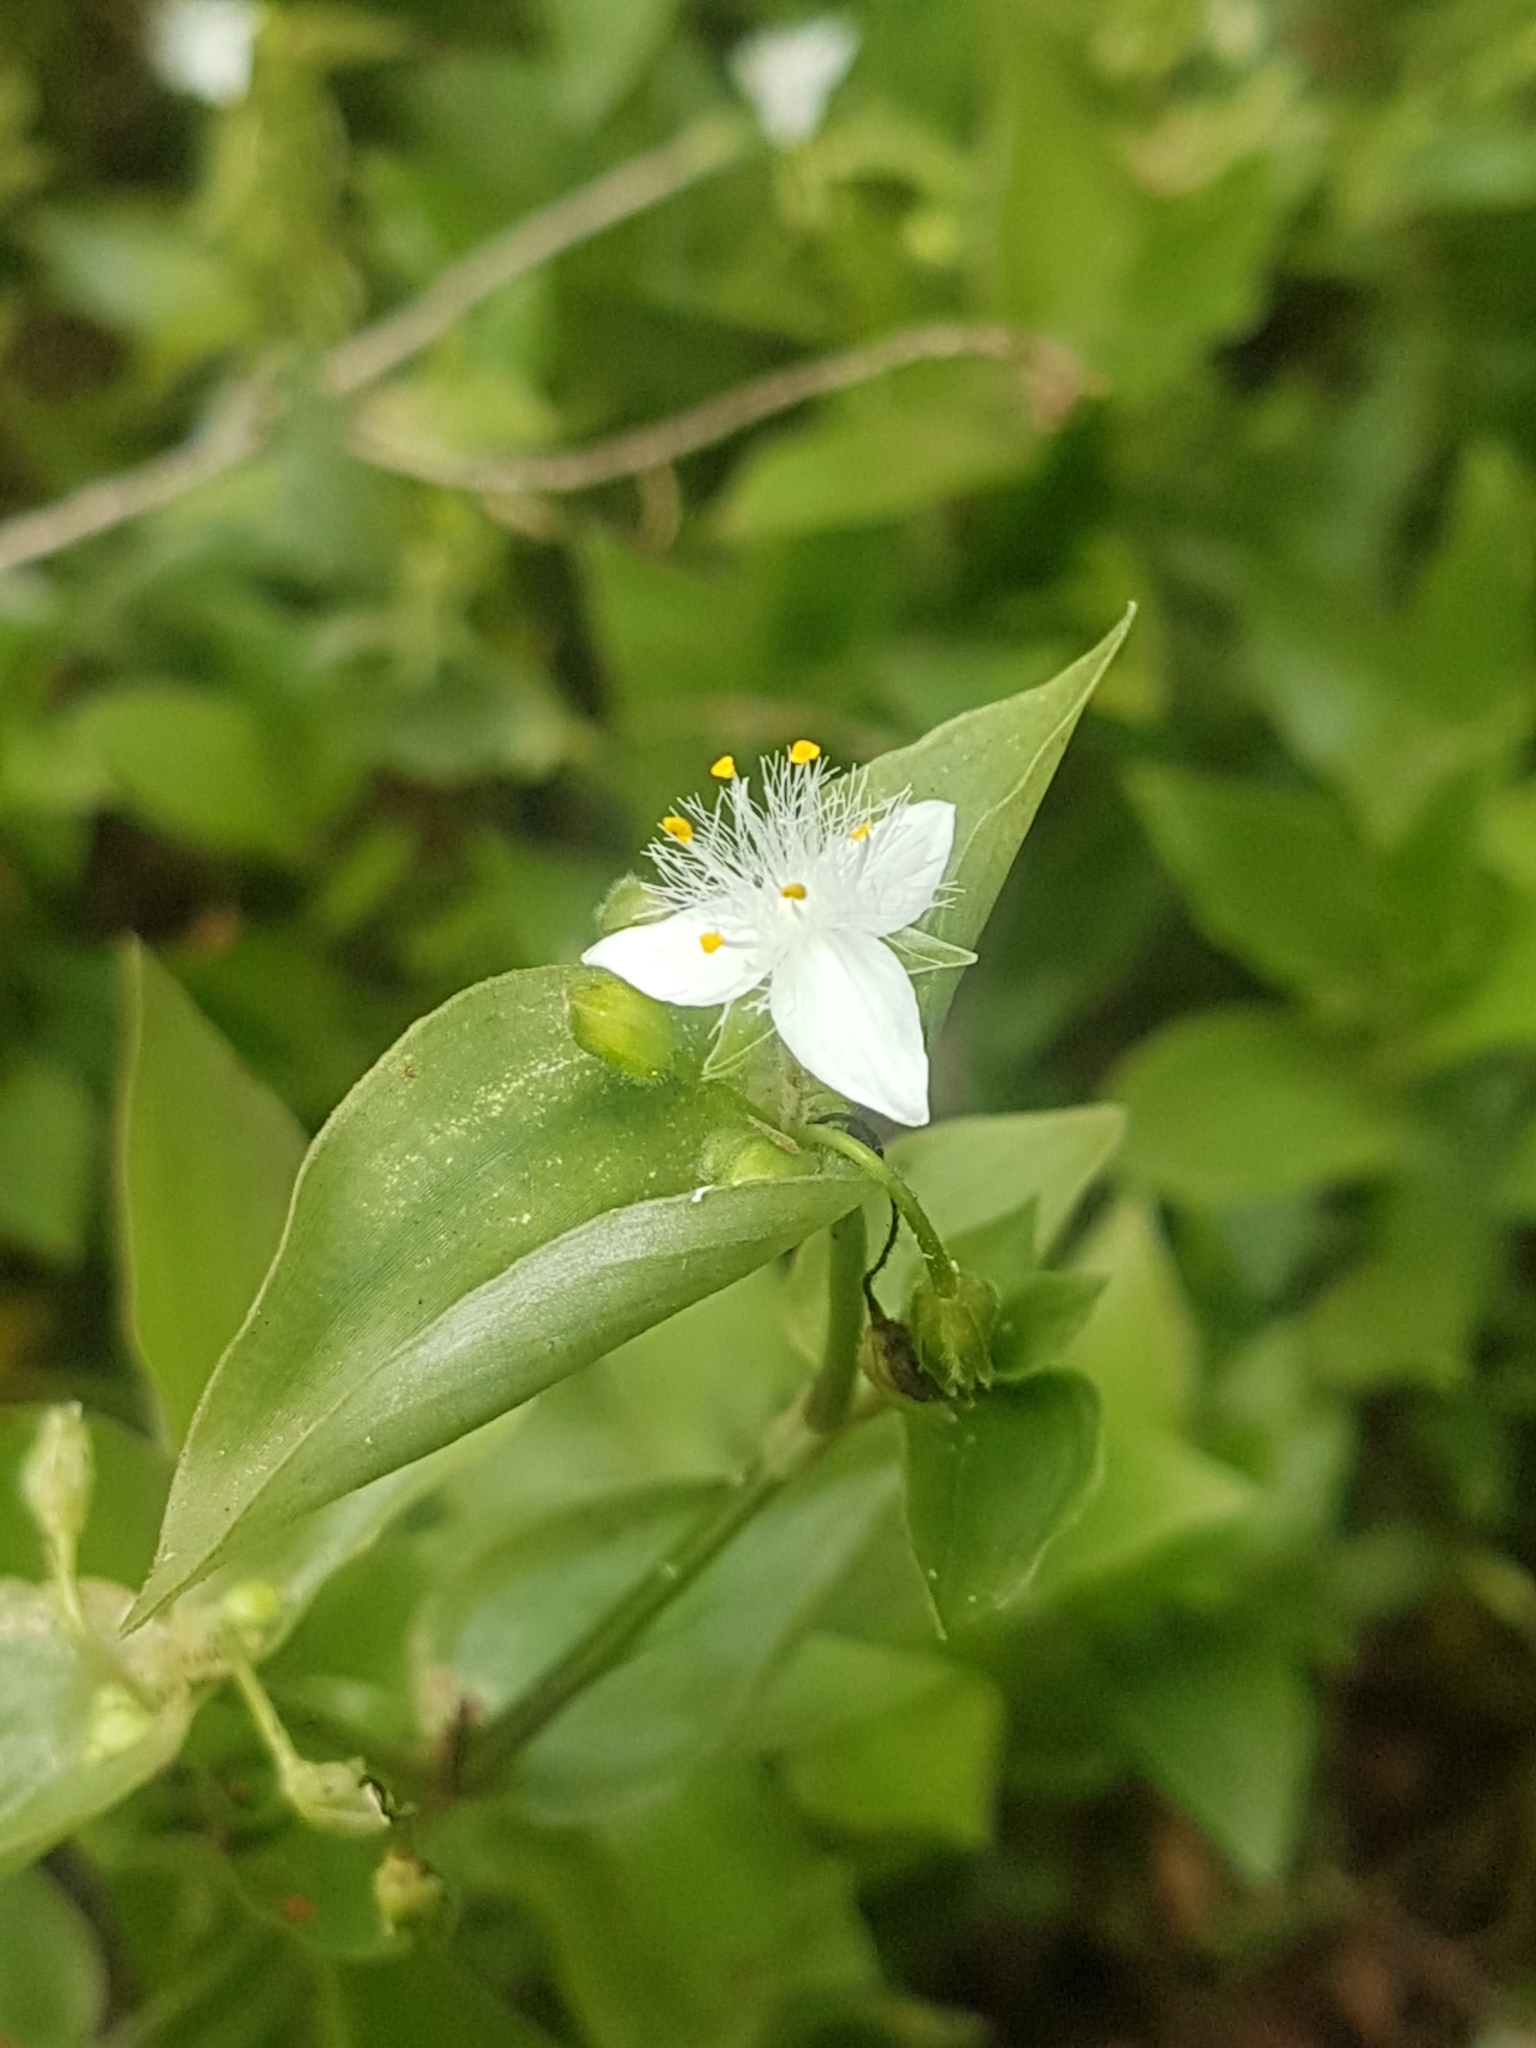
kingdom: Plantae
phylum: Tracheophyta
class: Liliopsida
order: Commelinales
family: Commelinaceae
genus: Tradescantia
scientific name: Tradescantia fluminensis
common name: Wandering-jew
